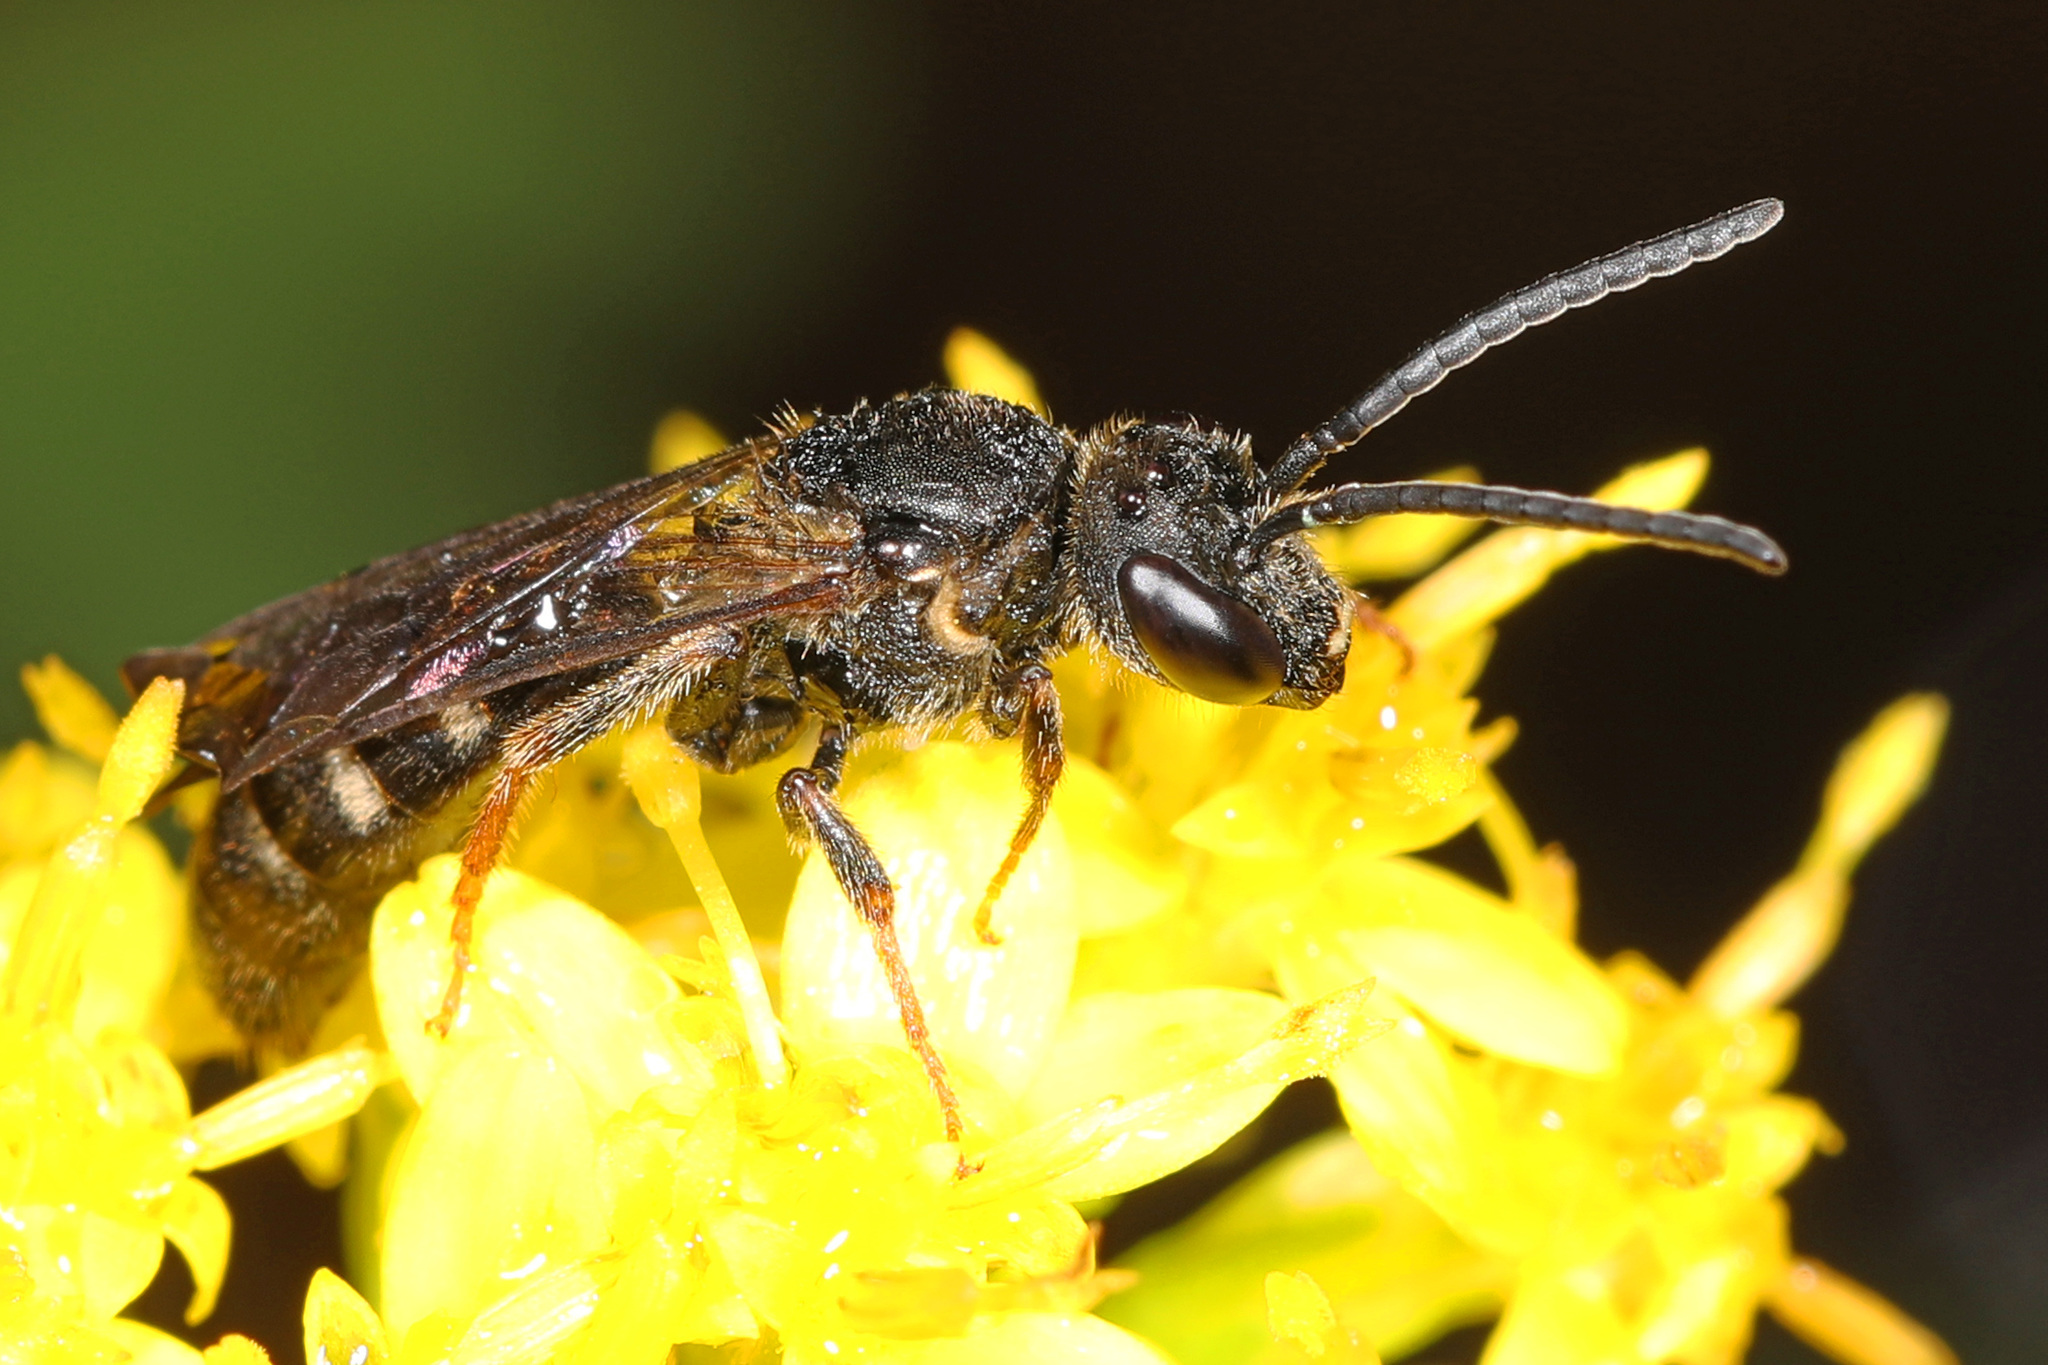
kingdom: Animalia
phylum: Arthropoda
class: Insecta
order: Hymenoptera
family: Halictidae
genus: Lasioglossum
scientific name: Lasioglossum fuscipenne
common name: Brown-winged sweat bee
